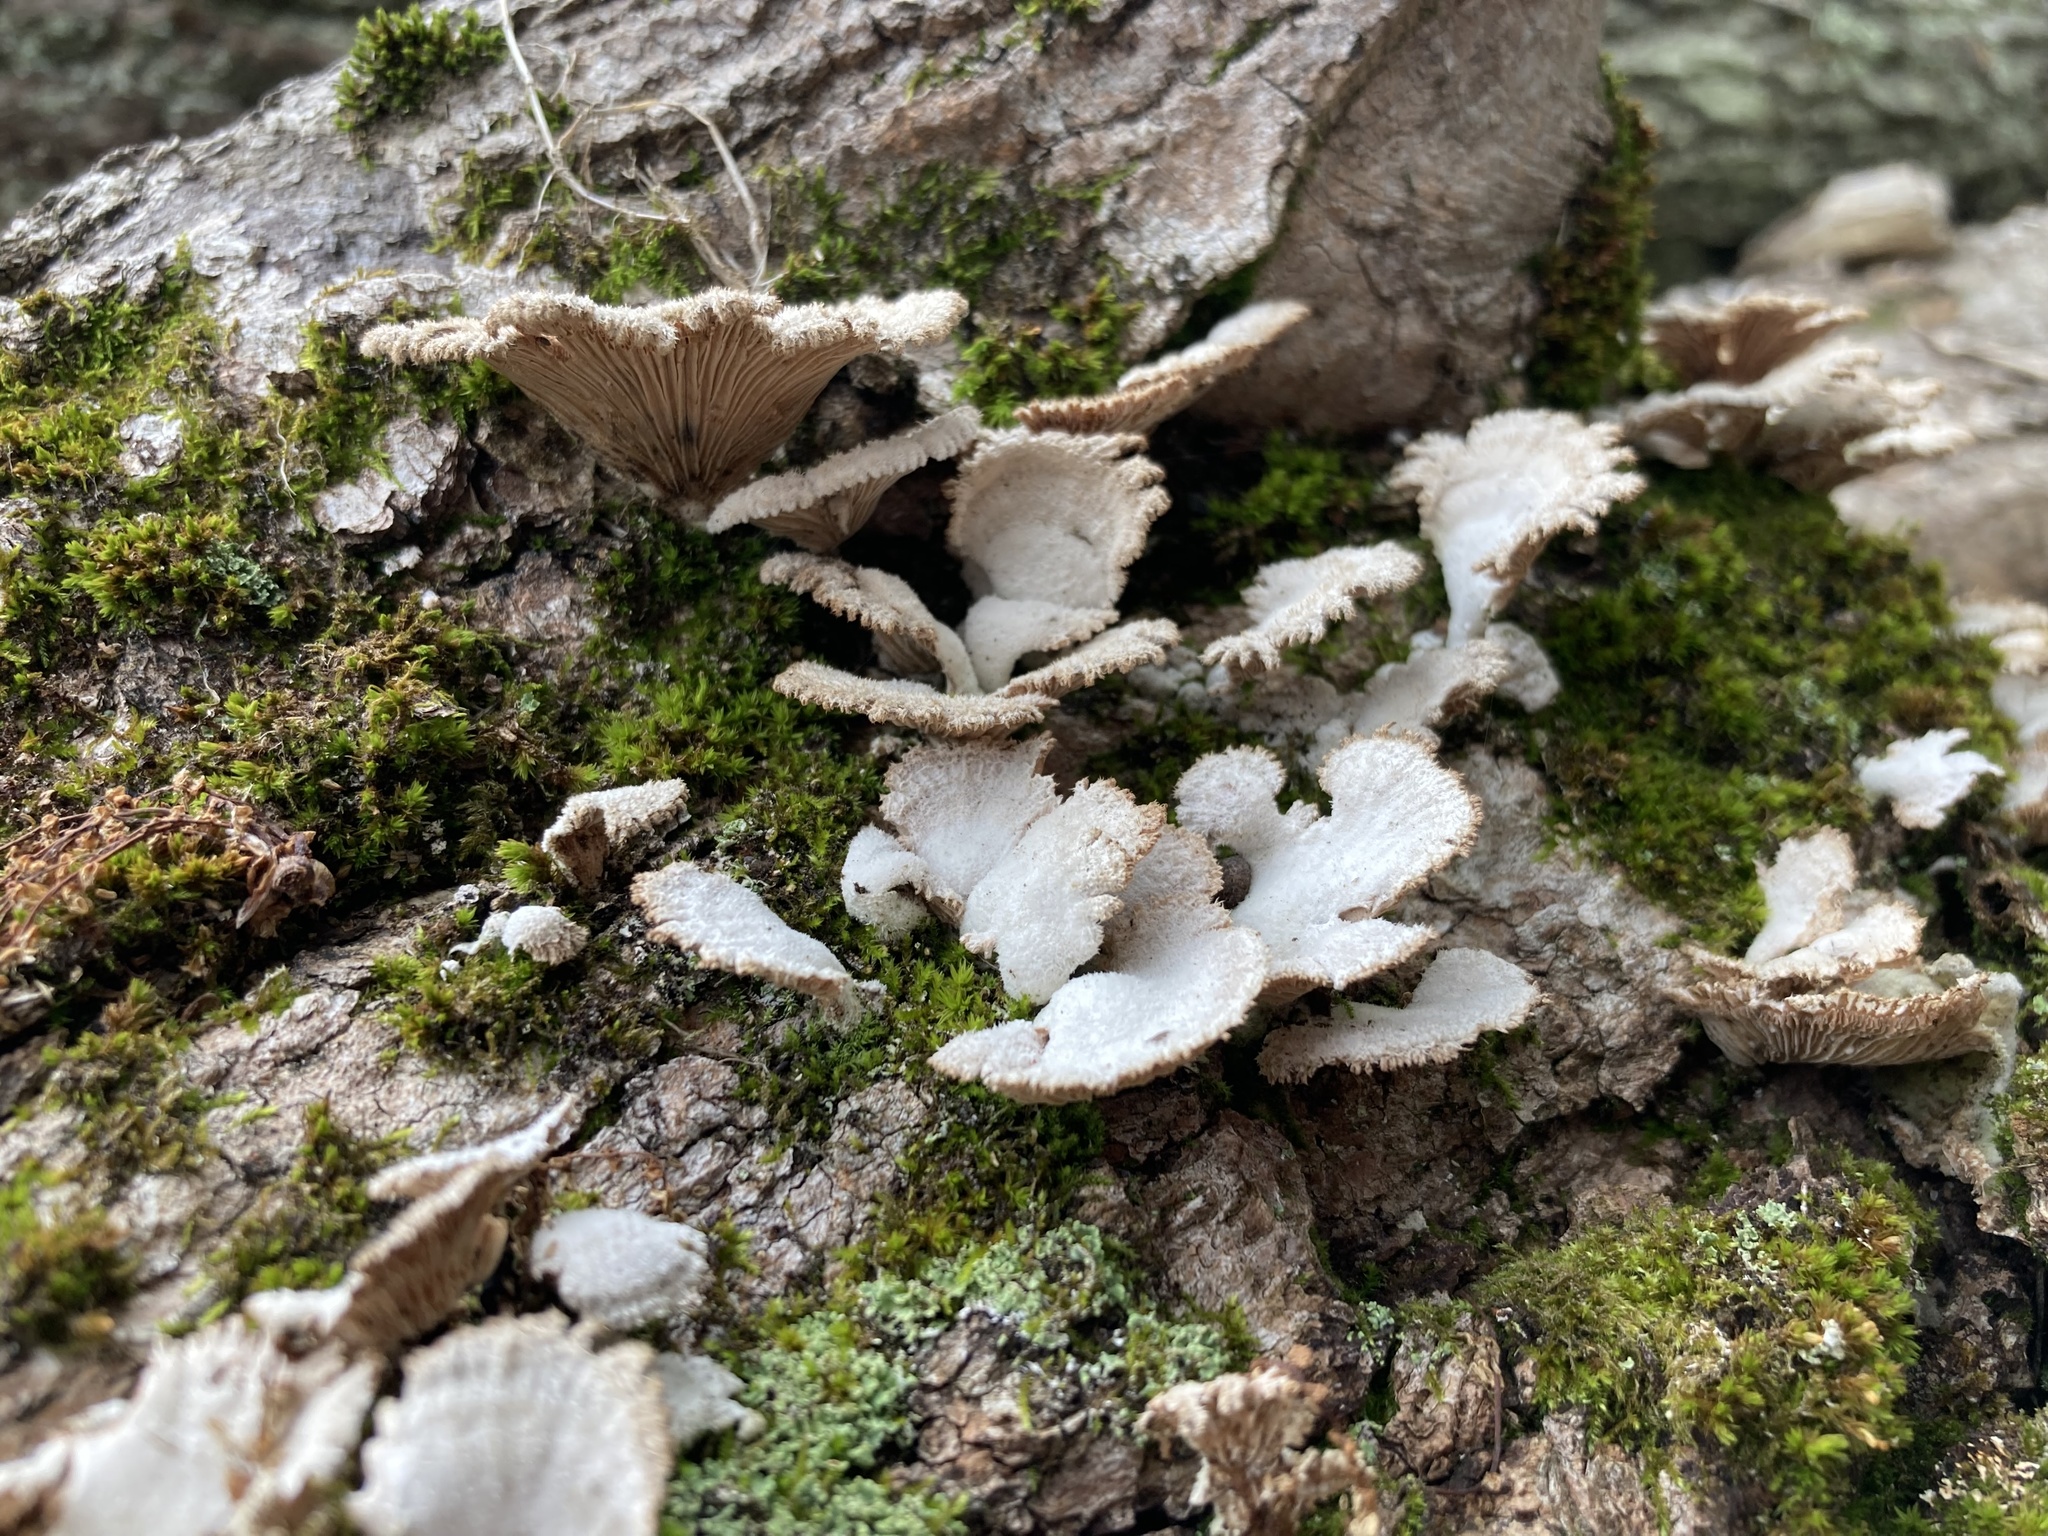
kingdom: Fungi
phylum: Basidiomycota
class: Agaricomycetes
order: Agaricales
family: Schizophyllaceae
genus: Schizophyllum
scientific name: Schizophyllum commune
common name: Common porecrust
